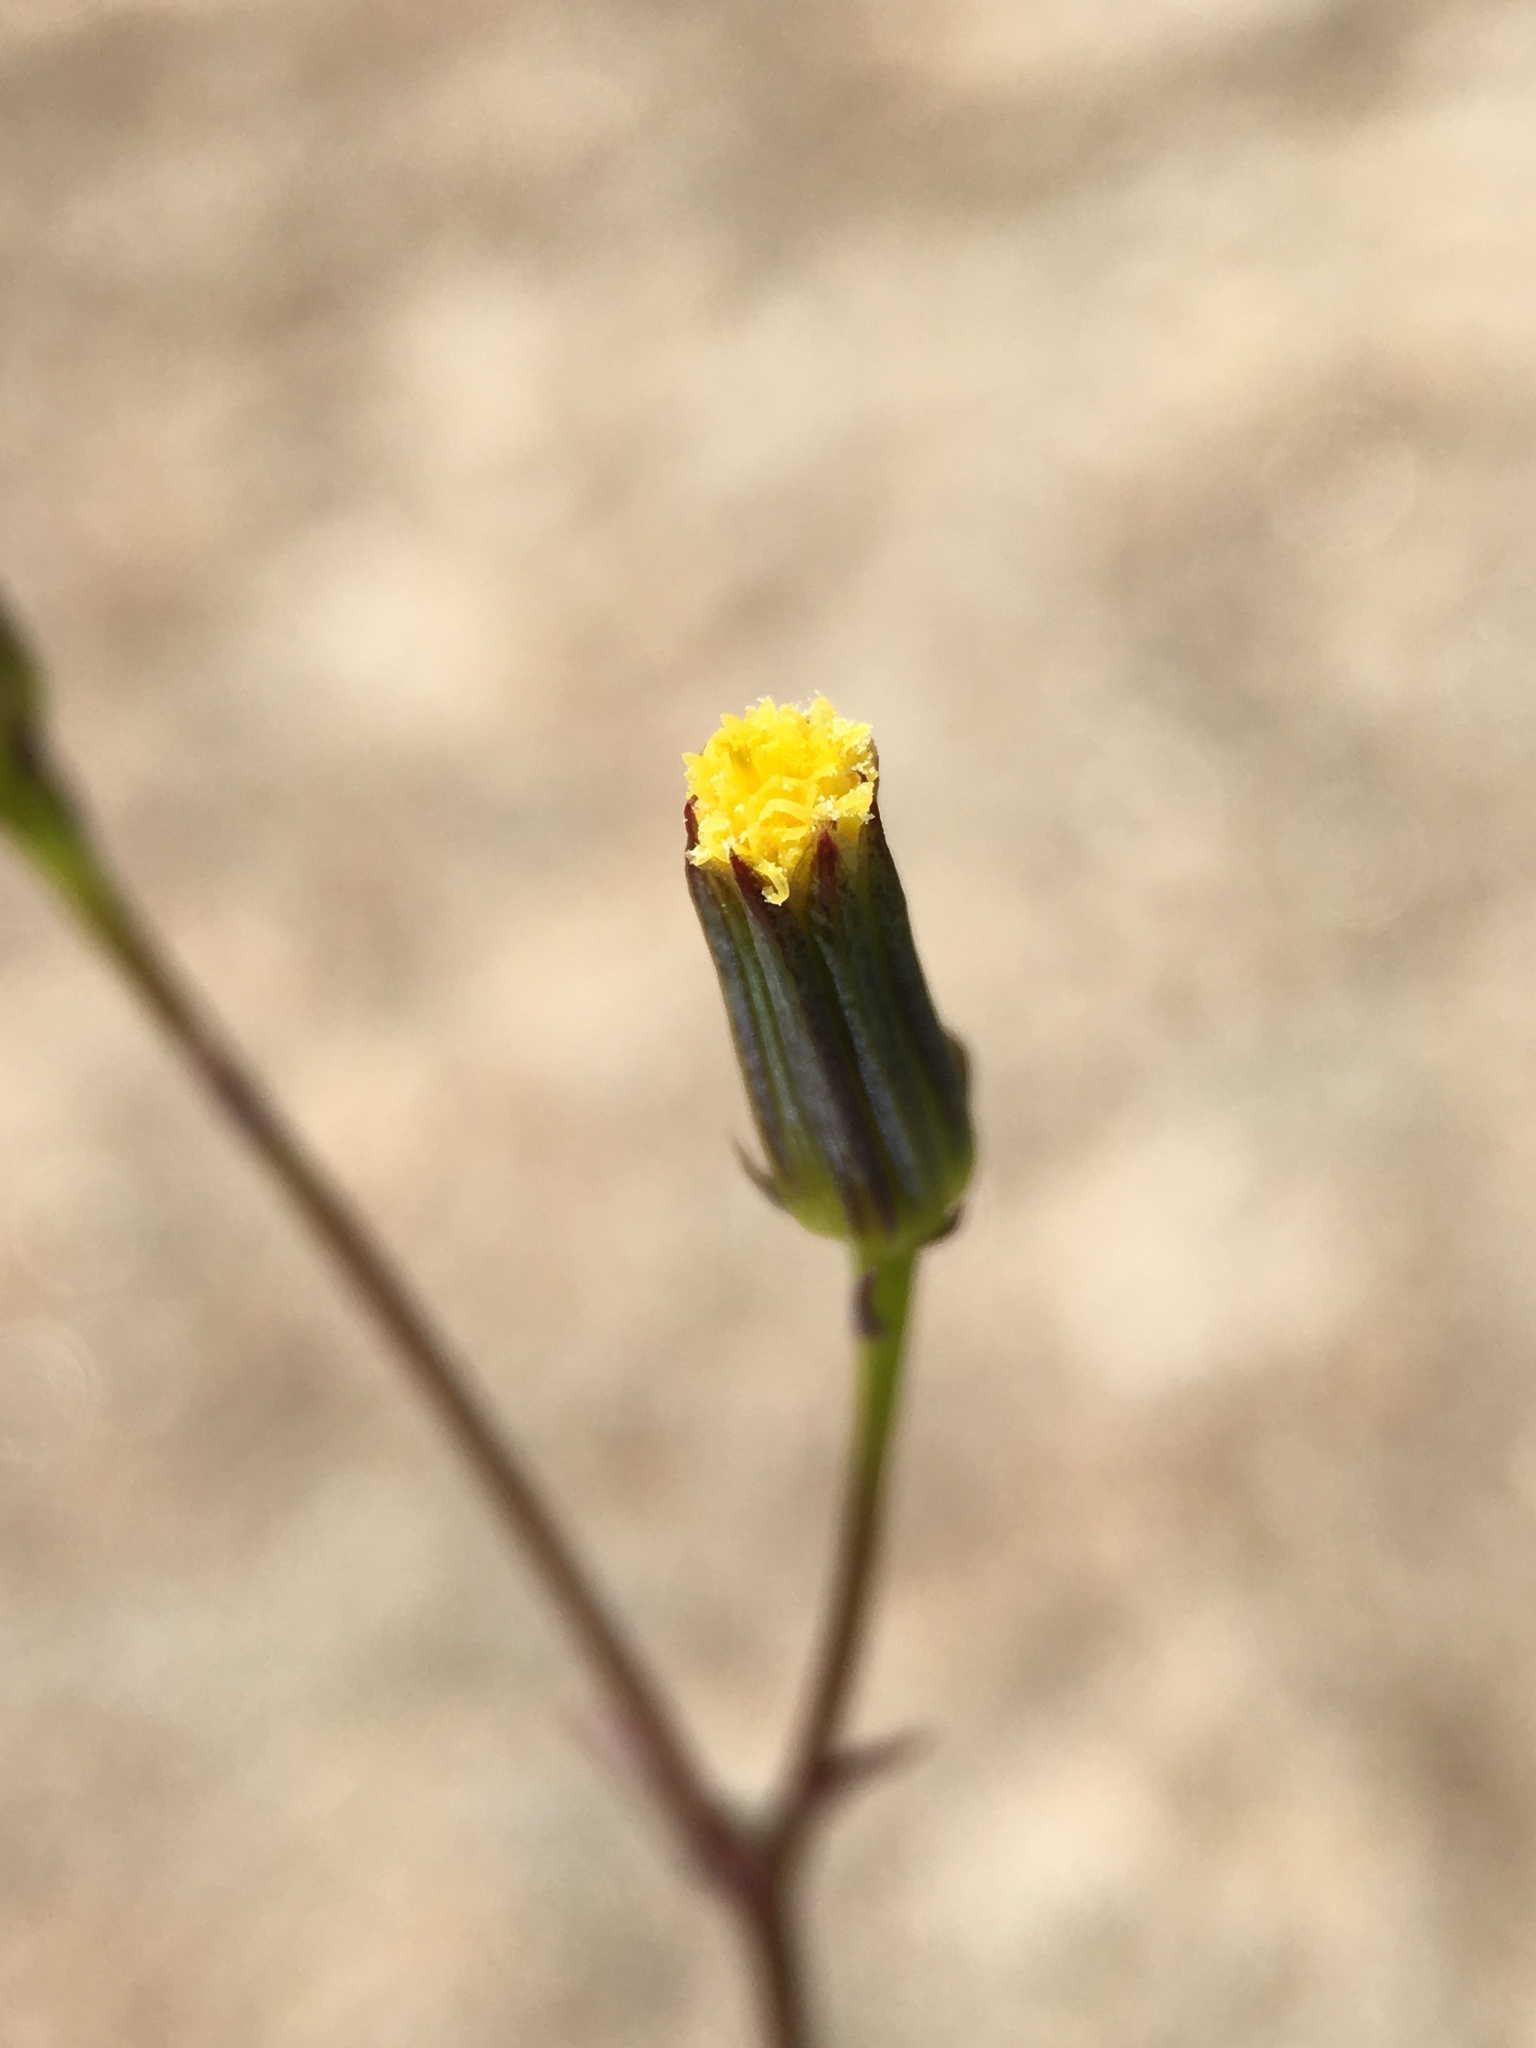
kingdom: Plantae
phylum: Tracheophyta
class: Magnoliopsida
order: Asterales
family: Asteraceae
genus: Senecio
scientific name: Senecio mohavensis
